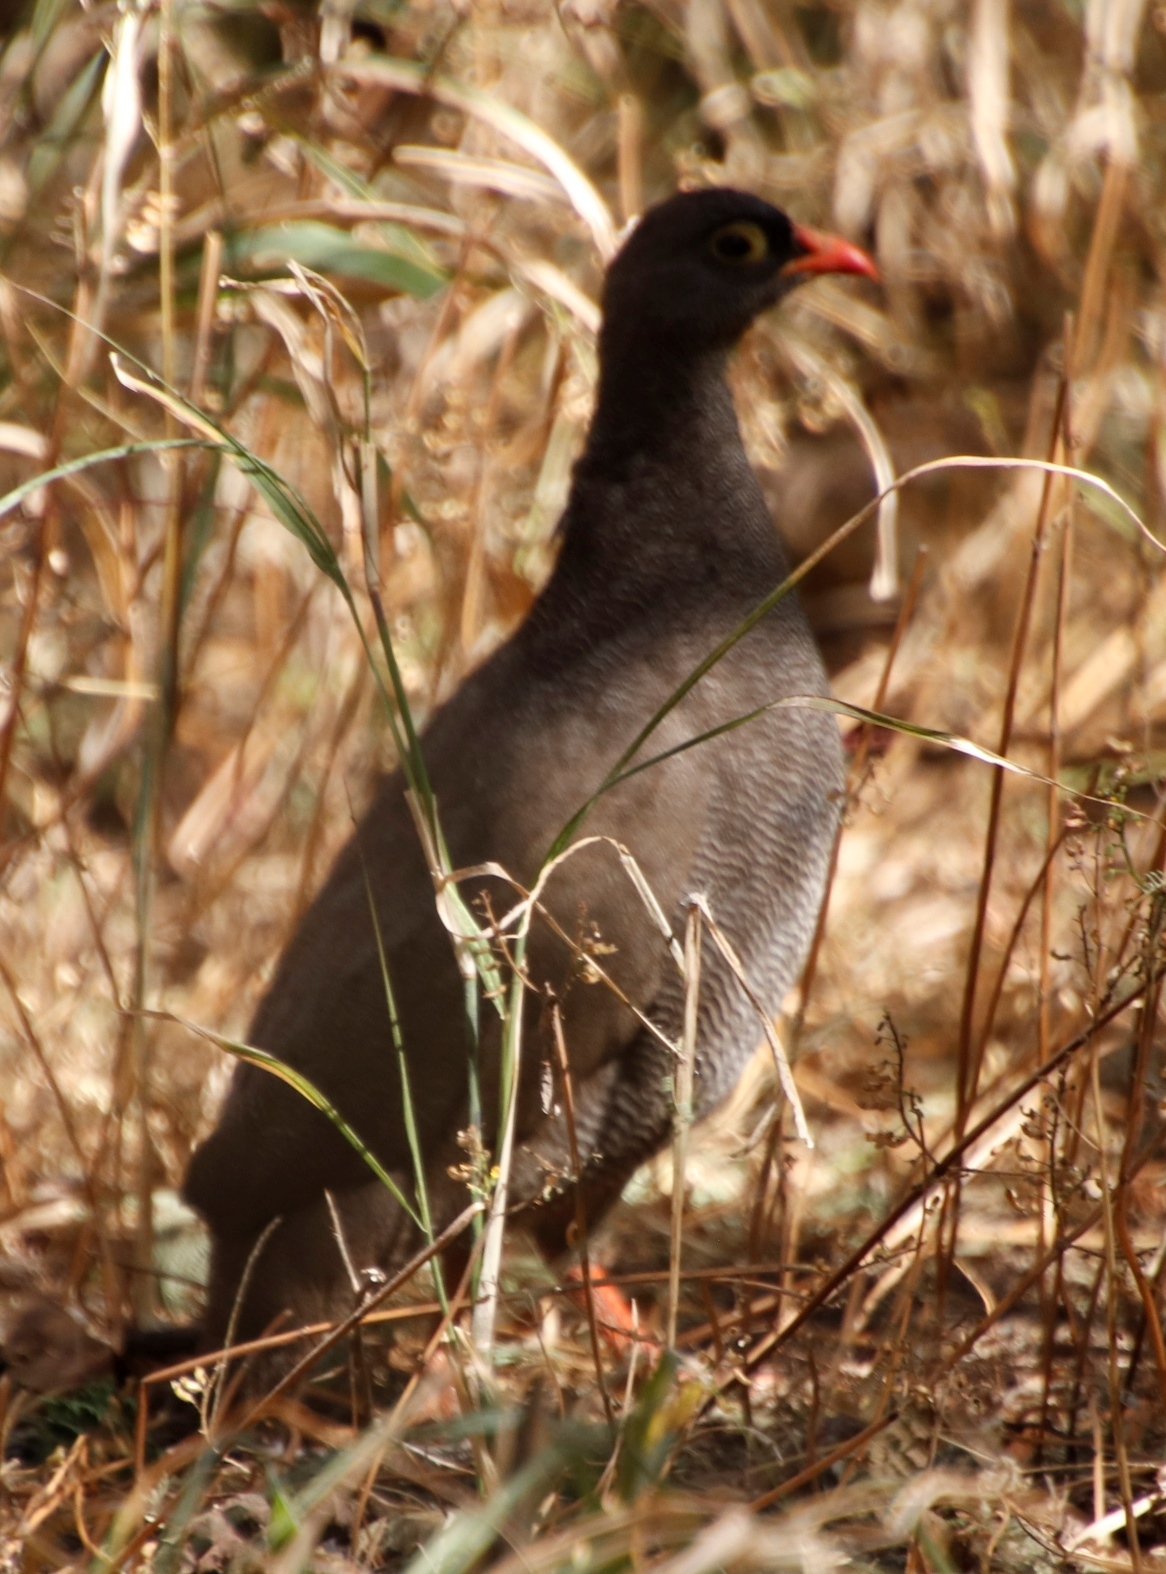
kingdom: Animalia
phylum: Chordata
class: Aves
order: Galliformes
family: Phasianidae
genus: Pternistis
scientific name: Pternistis adspersus
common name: Red-billed spurfowl
